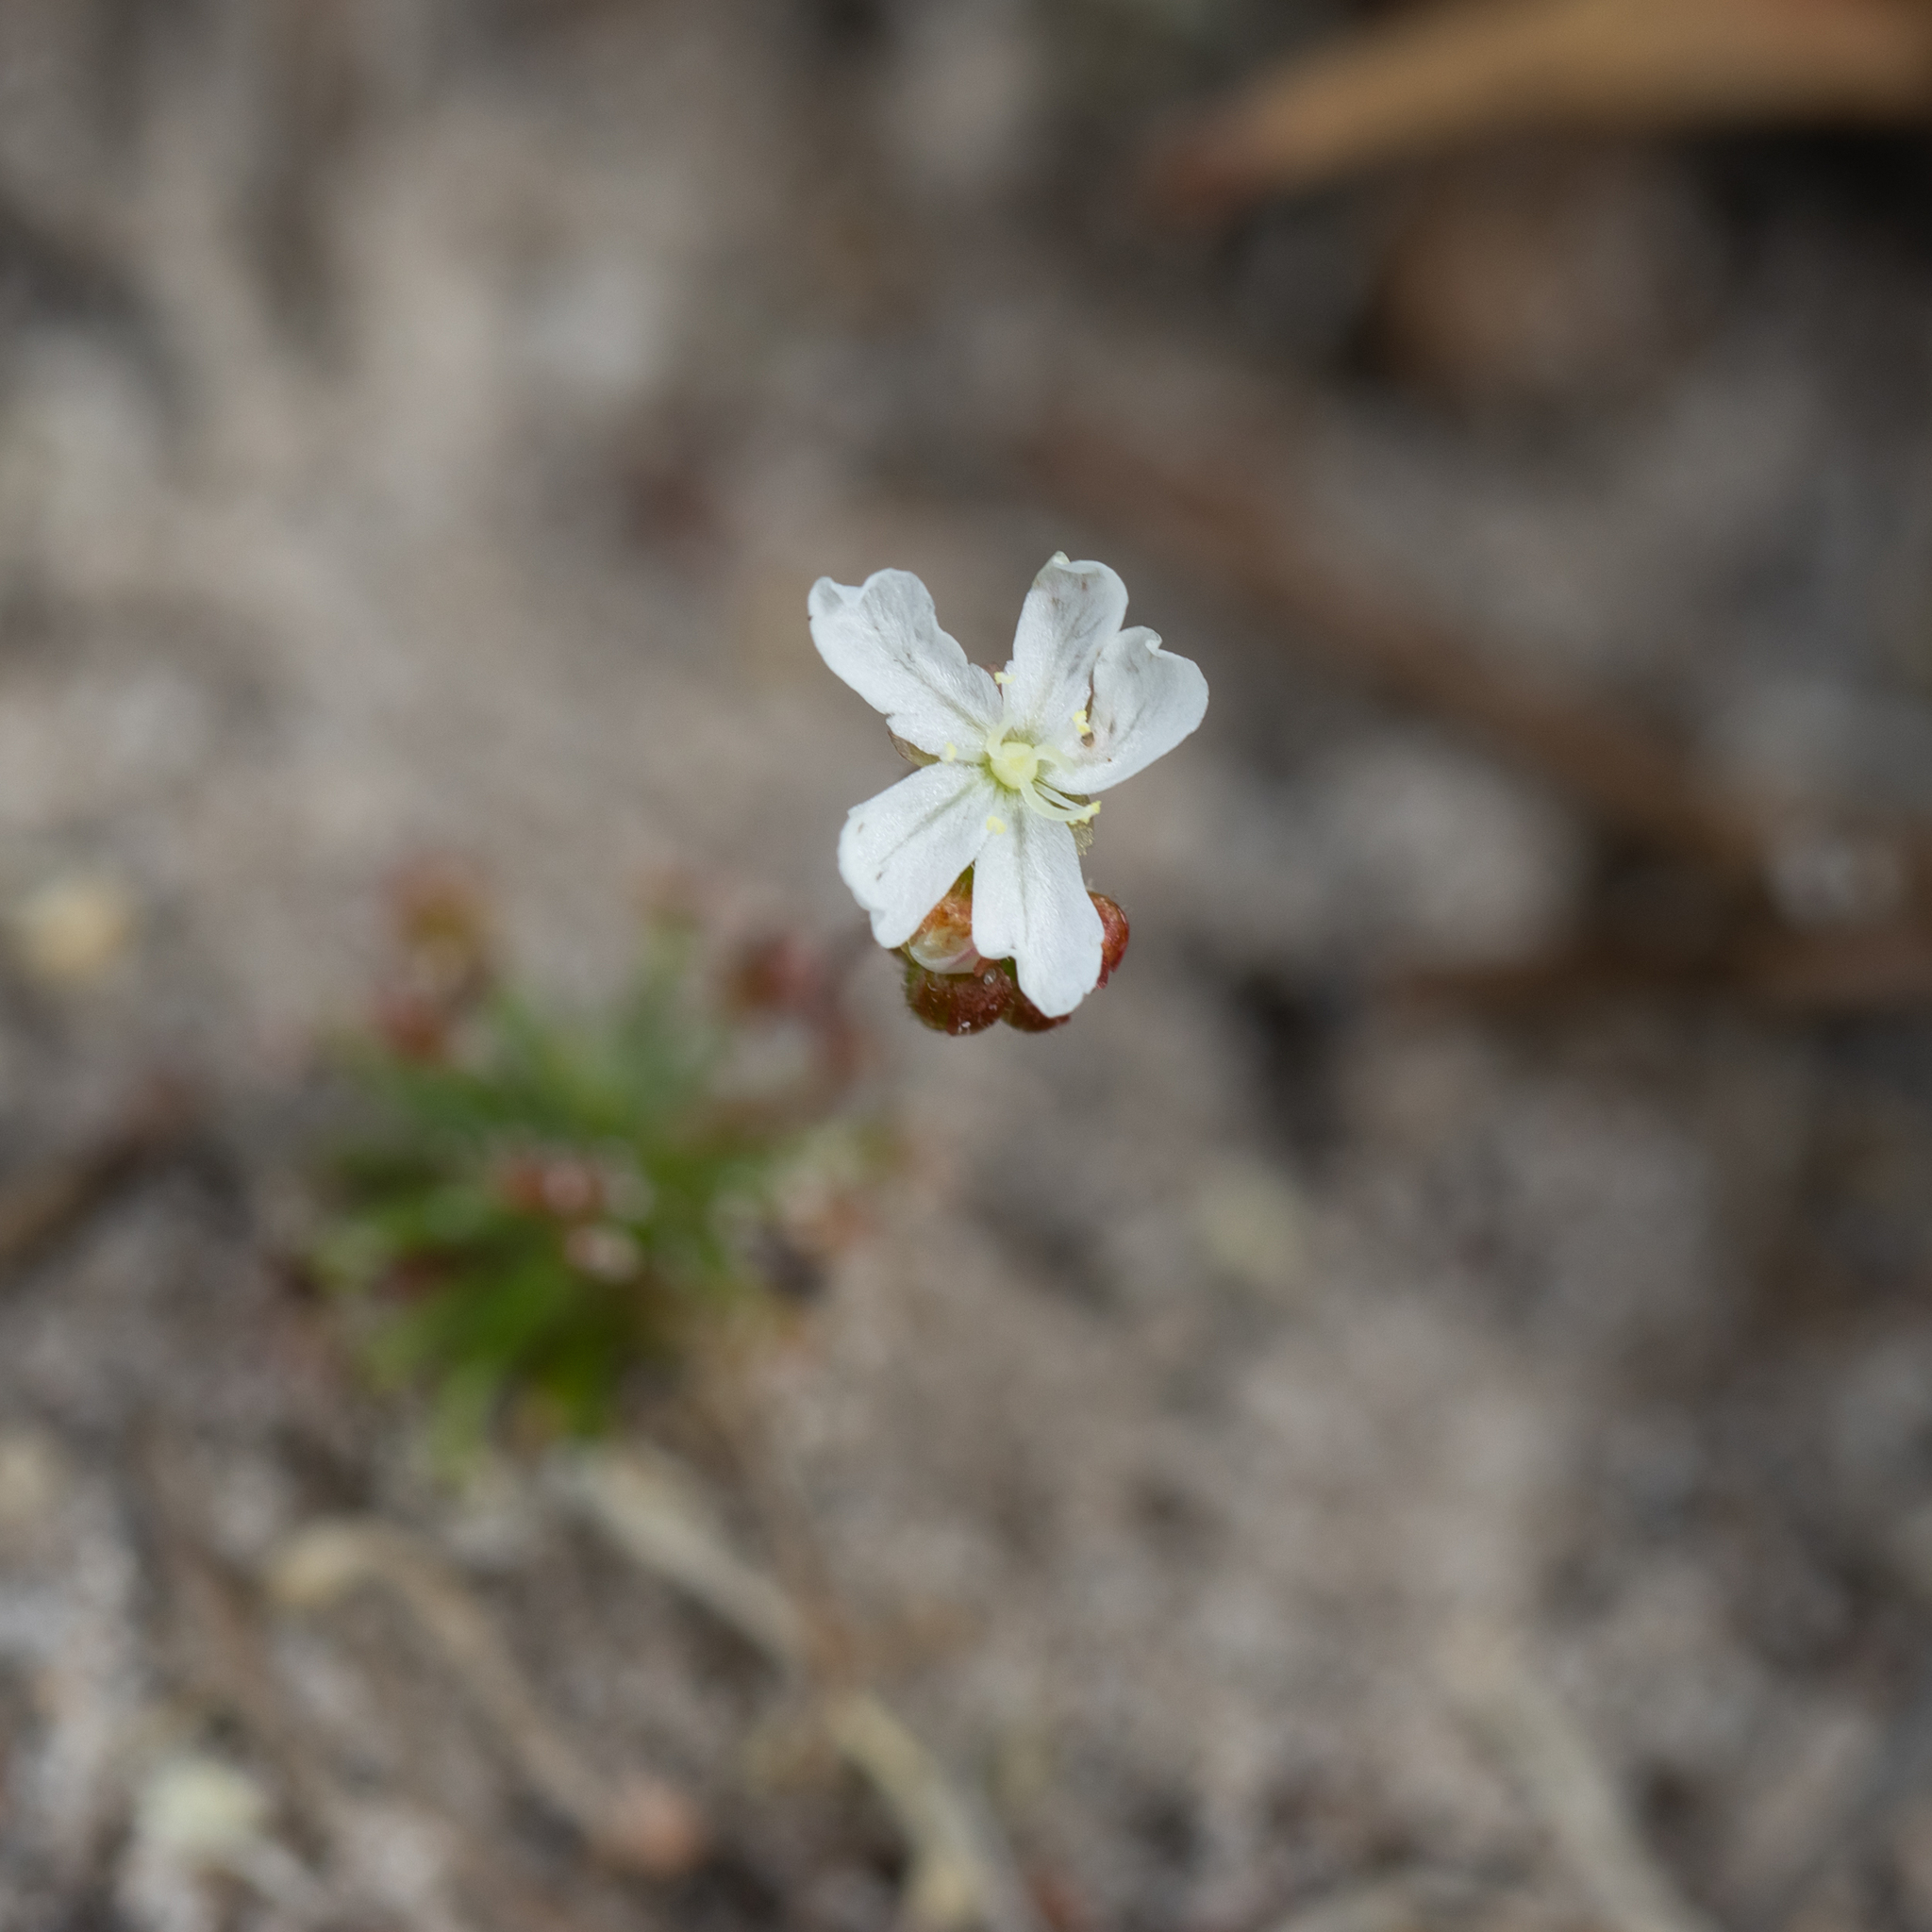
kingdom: Plantae
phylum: Tracheophyta
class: Magnoliopsida
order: Caryophyllales
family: Droseraceae
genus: Drosera
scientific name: Drosera paleacea
